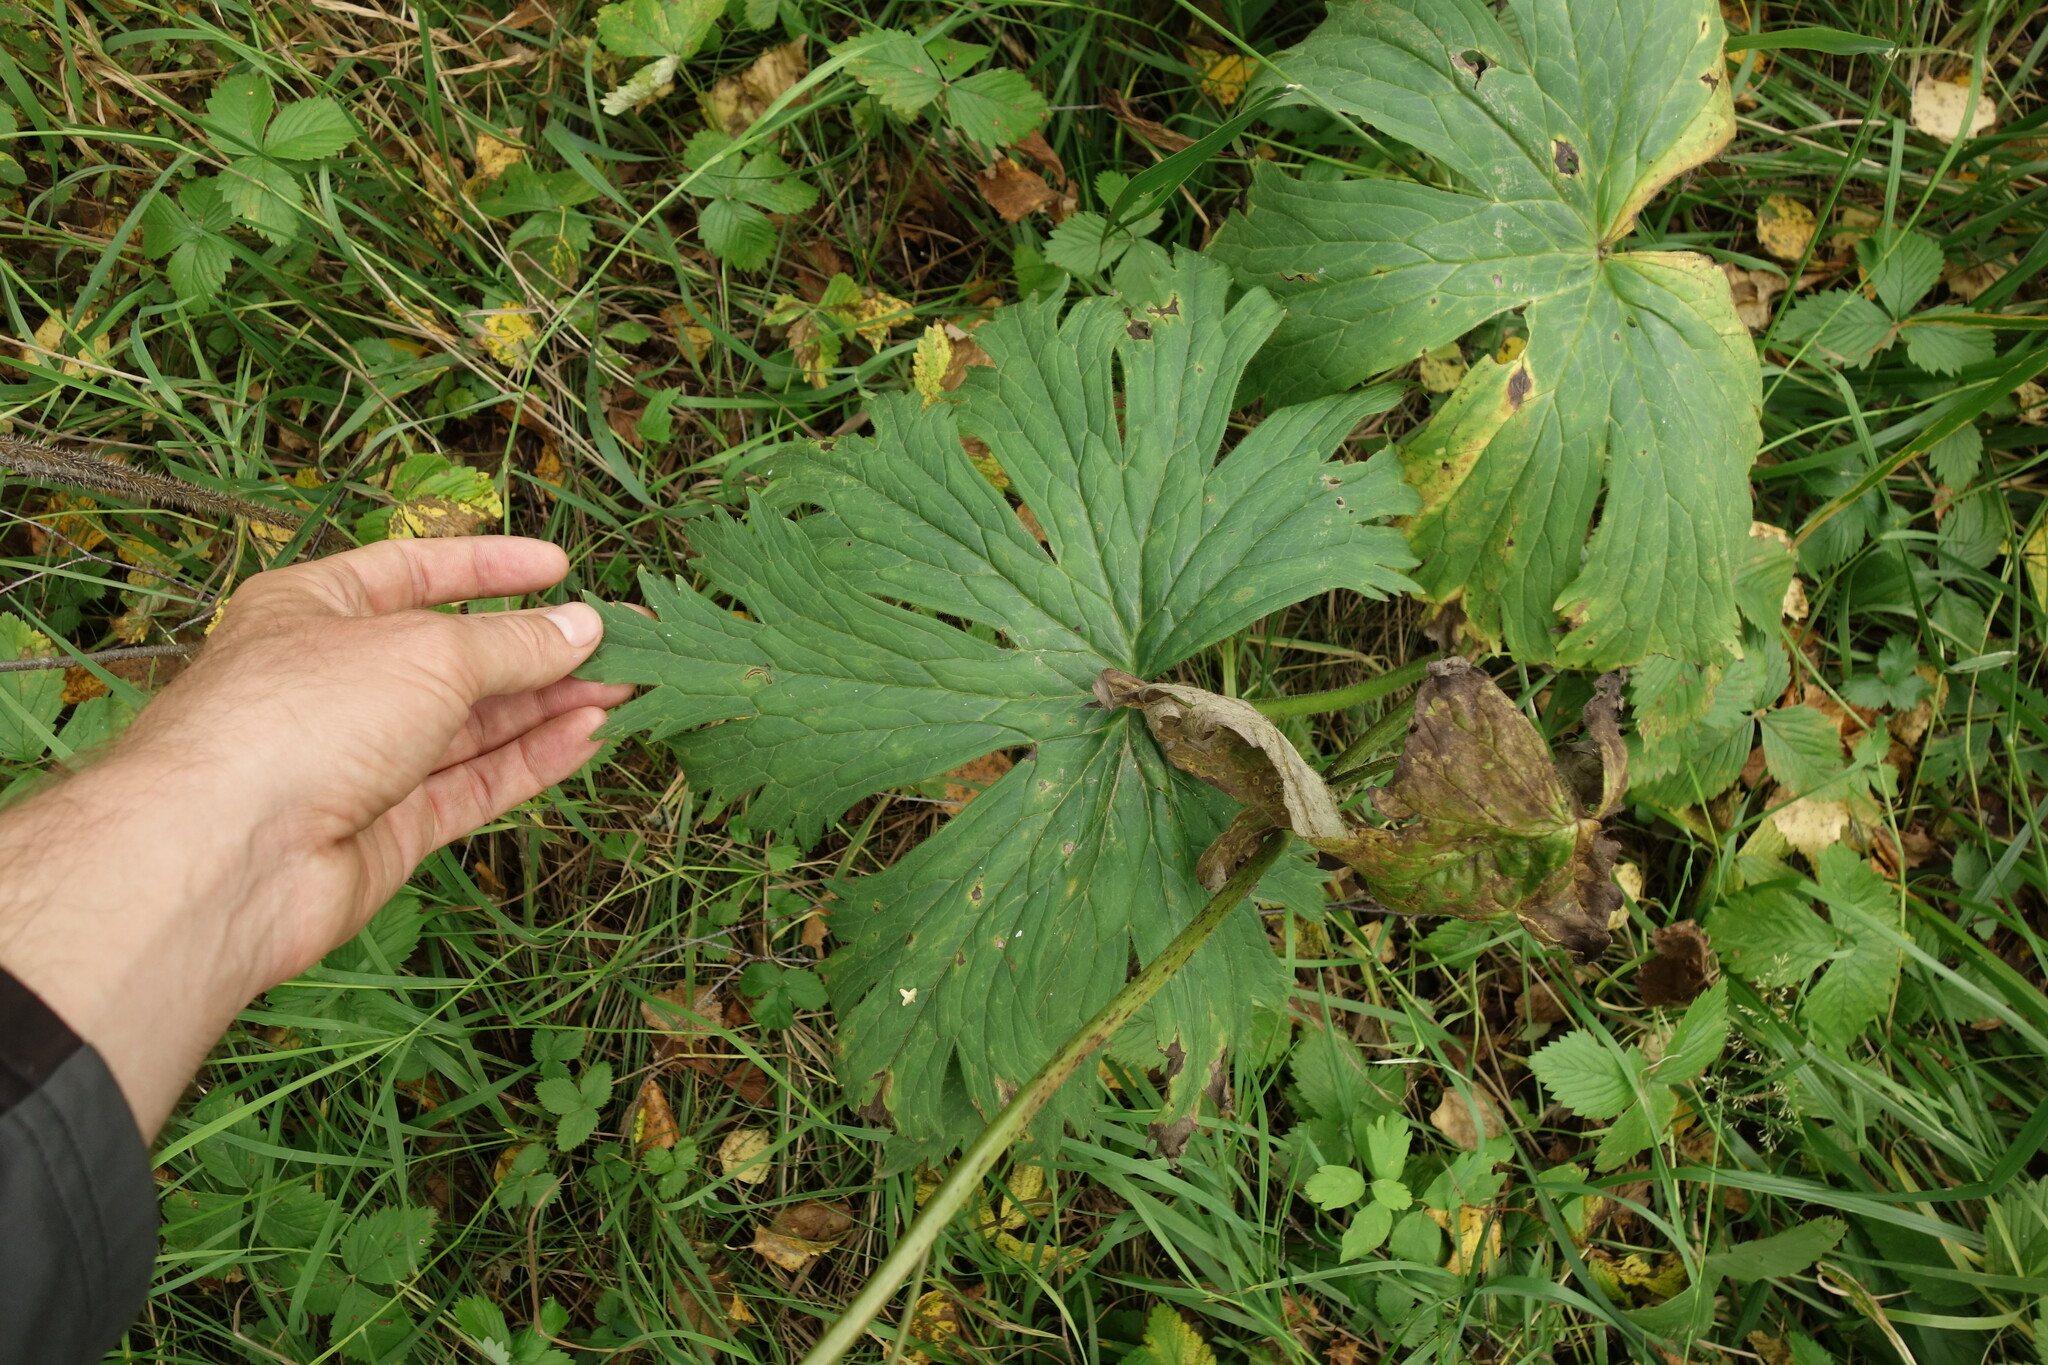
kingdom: Plantae
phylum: Tracheophyta
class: Magnoliopsida
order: Ranunculales
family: Ranunculaceae
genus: Aconitum
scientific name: Aconitum septentrionale
